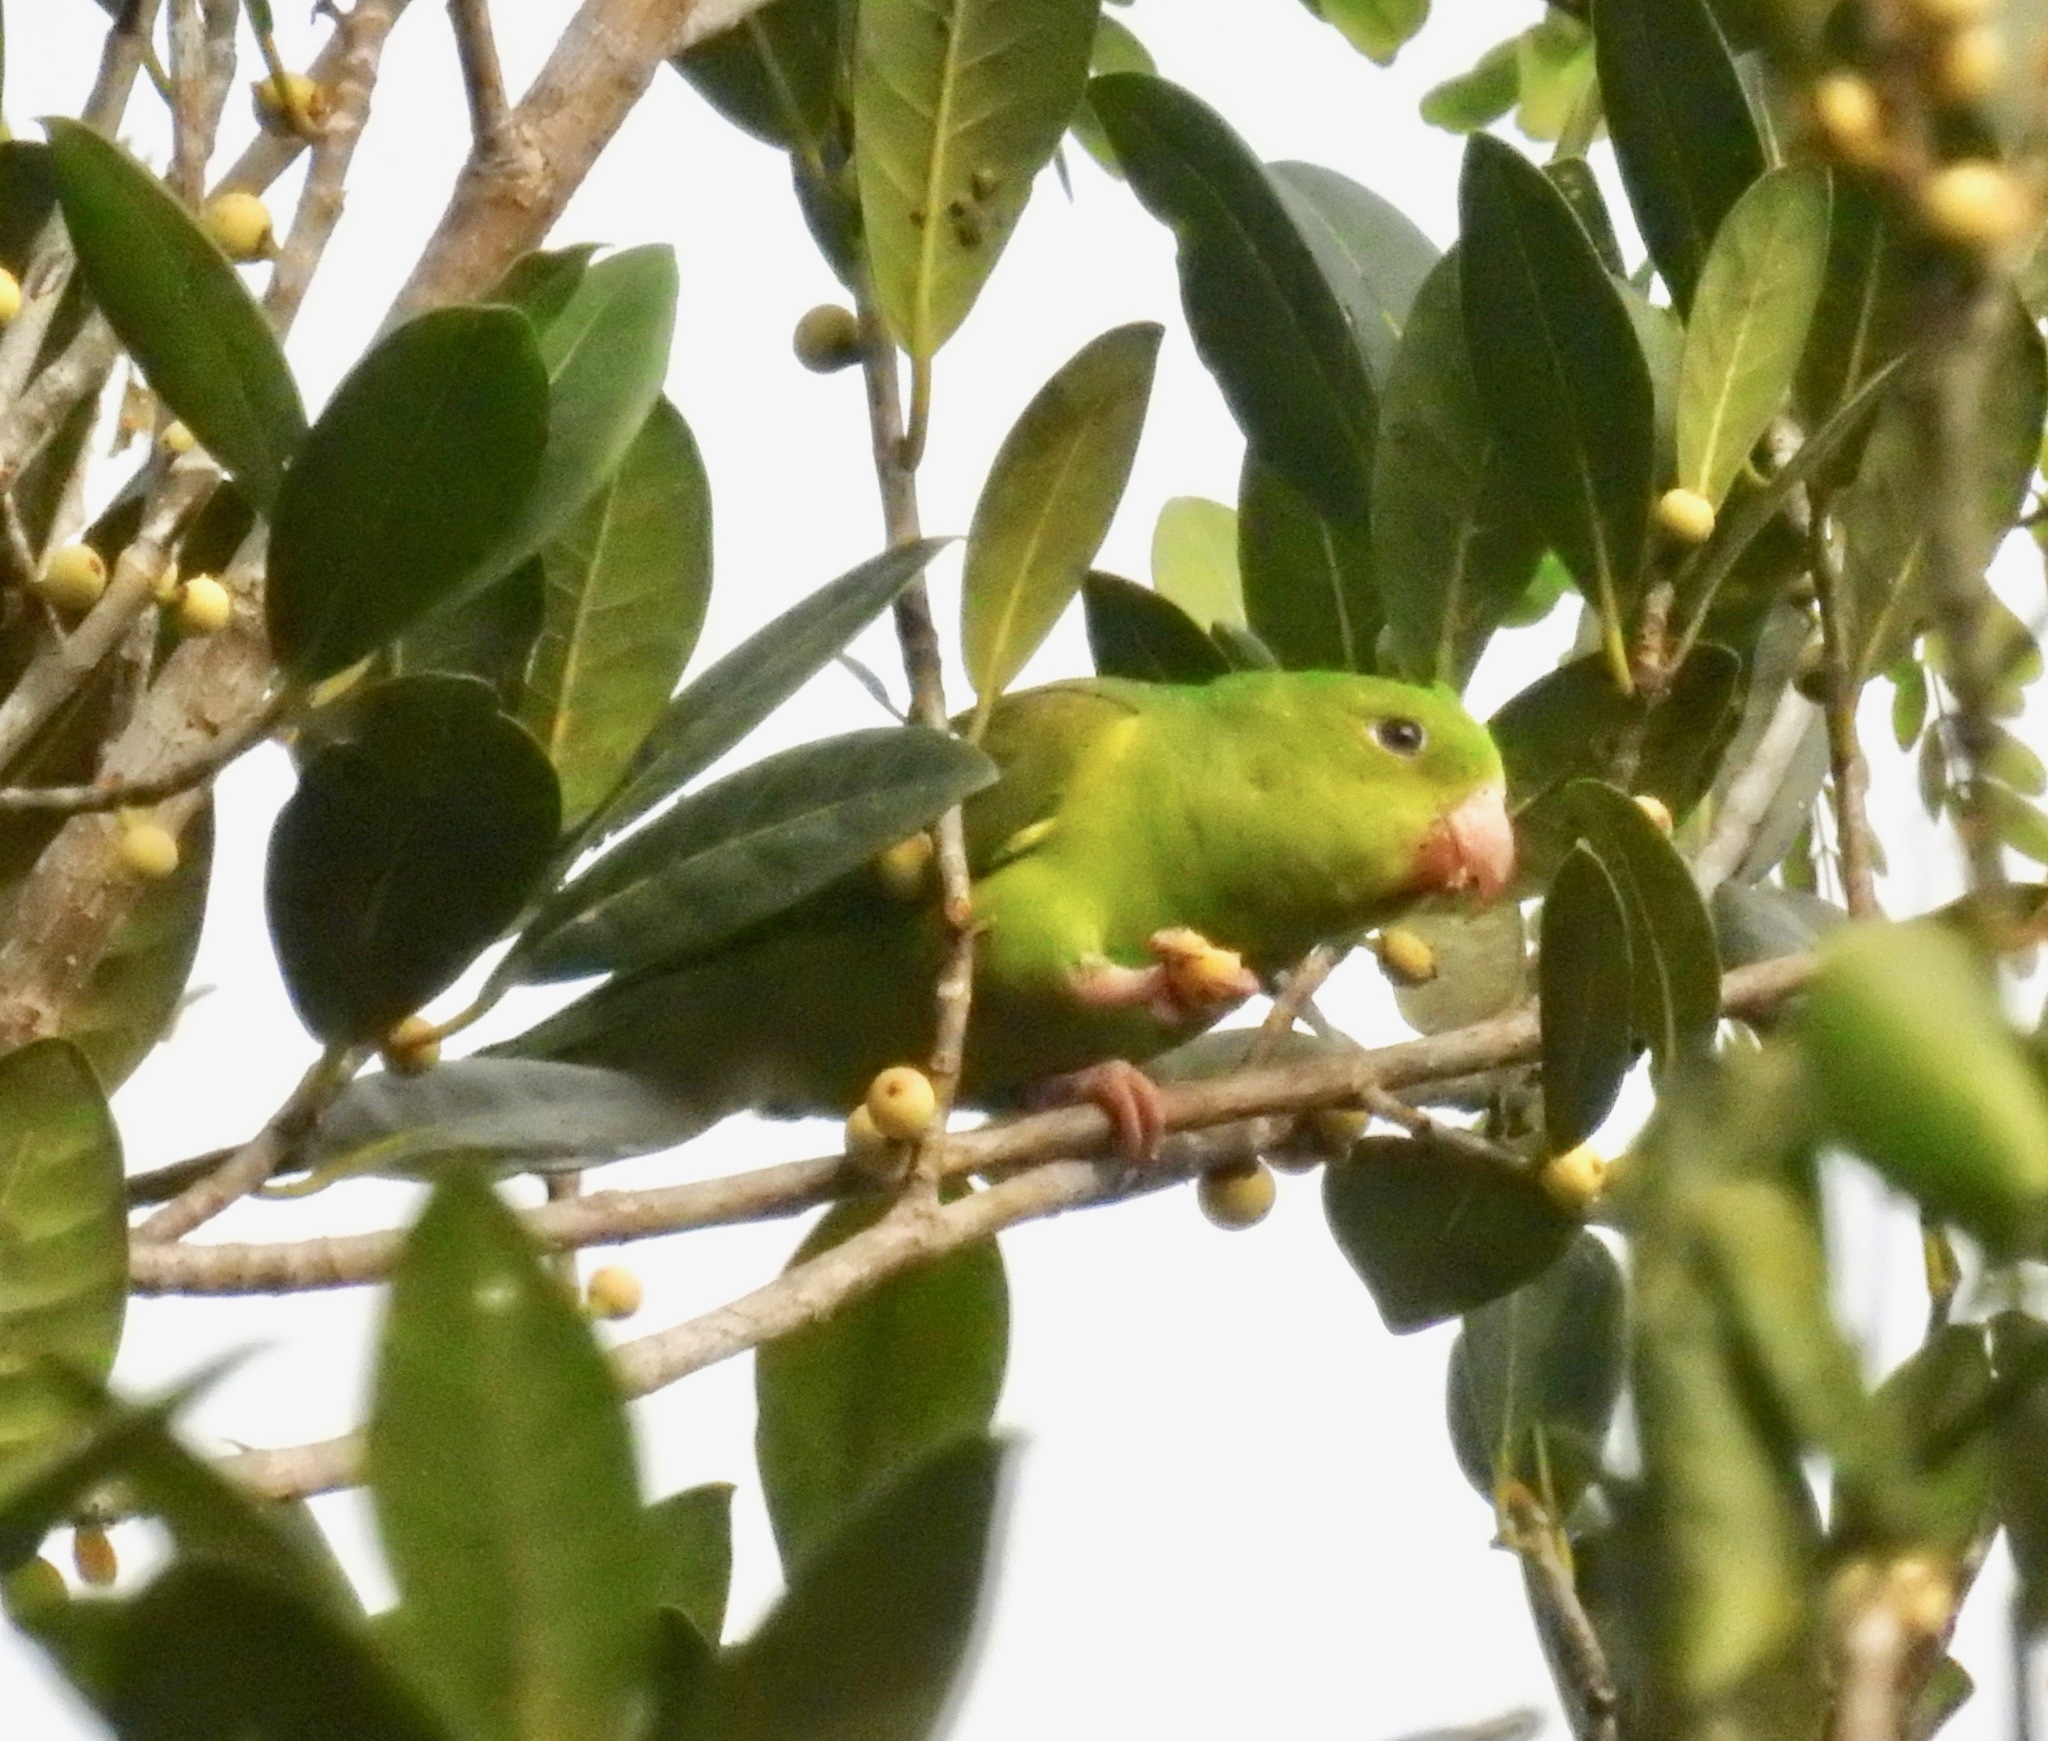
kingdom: Animalia
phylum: Chordata
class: Aves
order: Psittaciformes
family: Psittacidae
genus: Brotogeris
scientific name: Brotogeris tirica
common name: Plain parakeet
